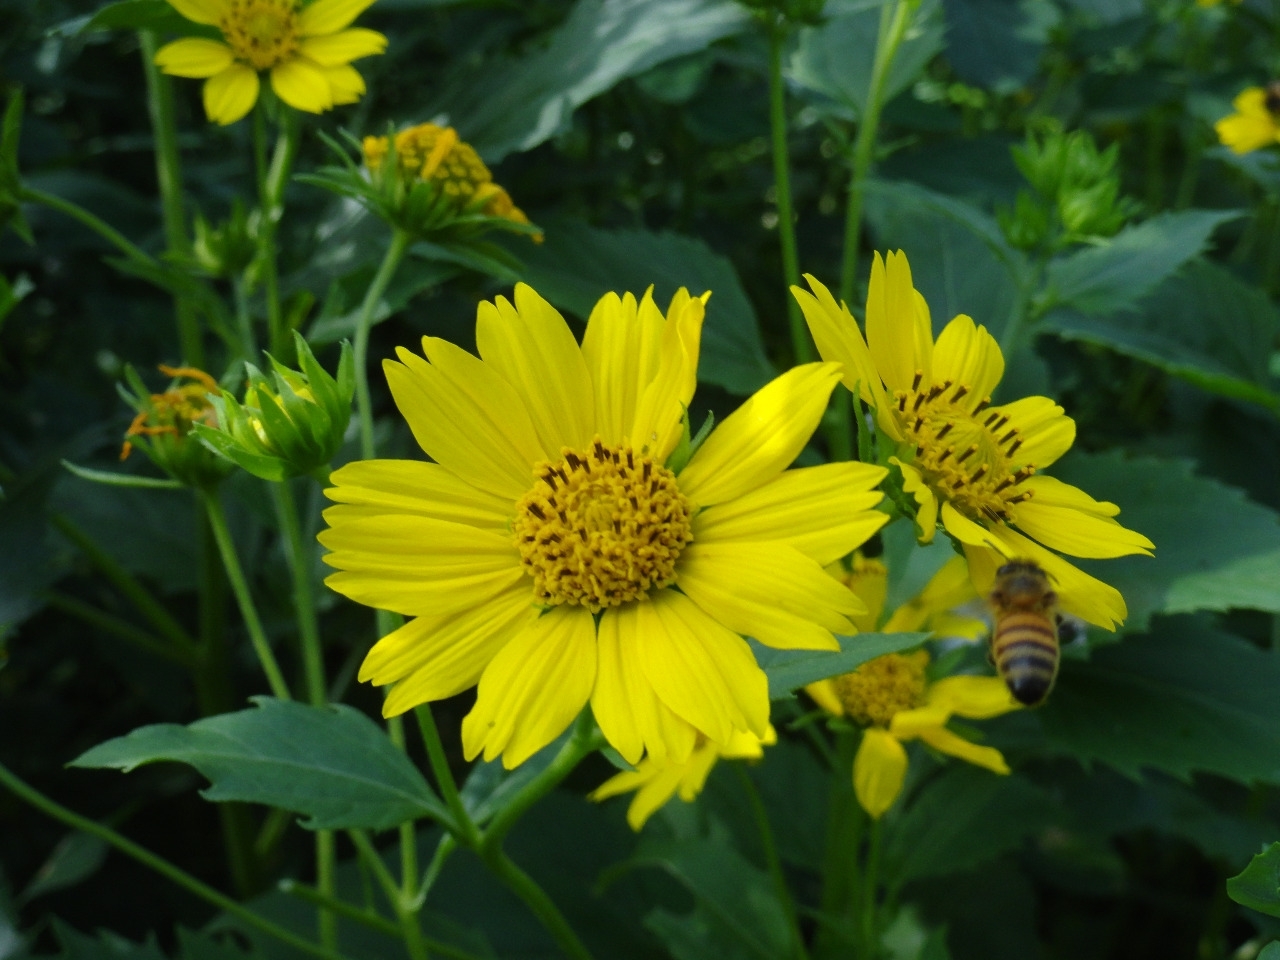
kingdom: Plantae
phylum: Tracheophyta
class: Magnoliopsida
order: Asterales
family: Asteraceae
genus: Verbesina
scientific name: Verbesina encelioides
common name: Golden crownbeard
